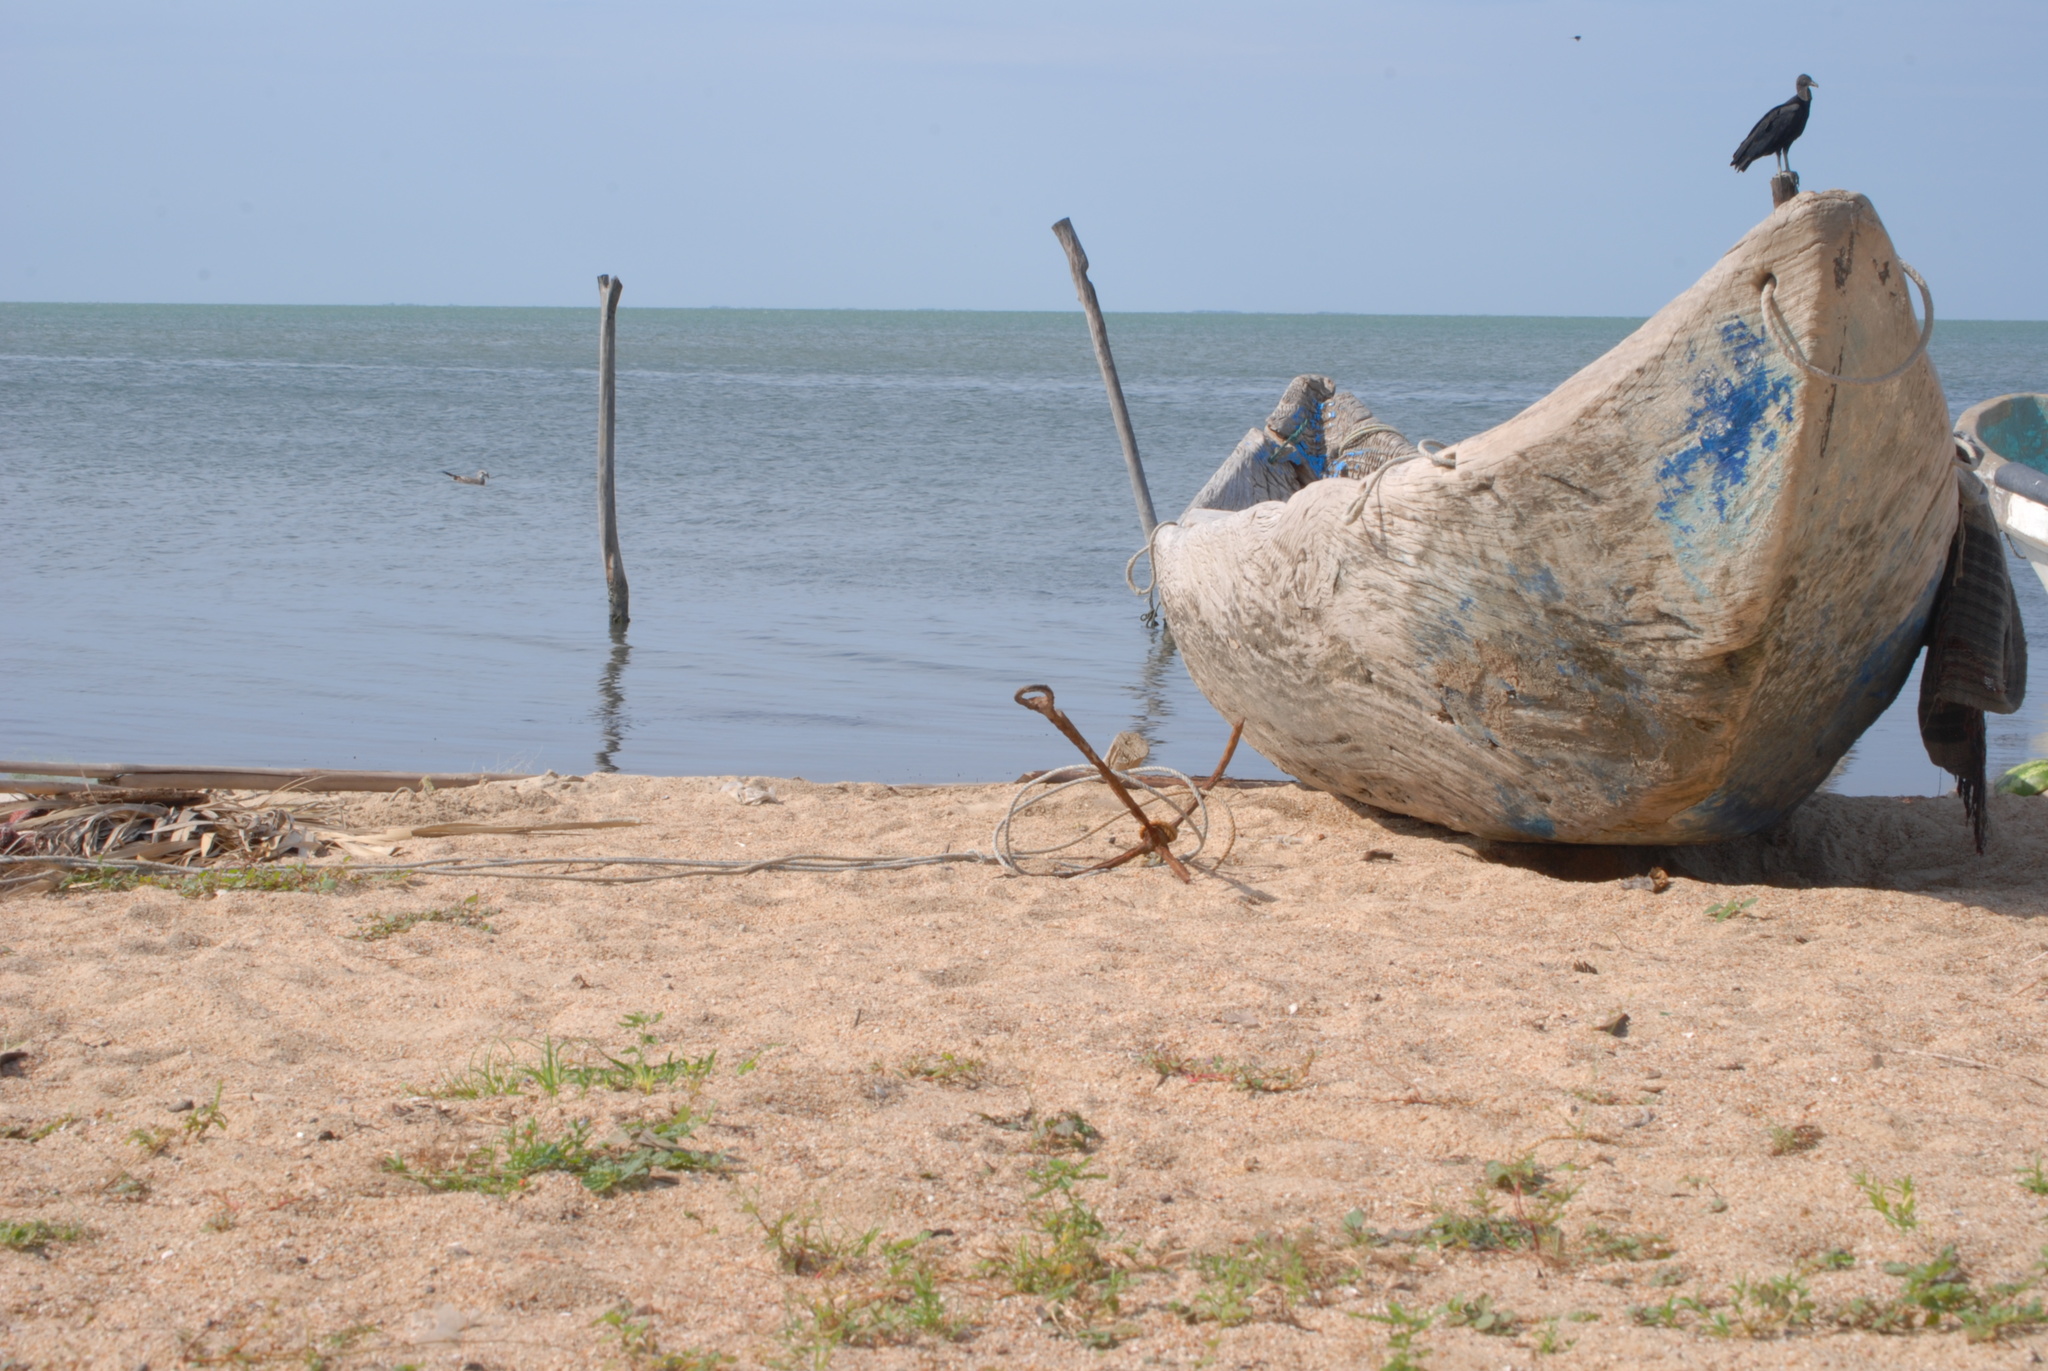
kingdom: Animalia
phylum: Chordata
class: Aves
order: Accipitriformes
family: Cathartidae
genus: Coragyps
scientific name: Coragyps atratus
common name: Black vulture
